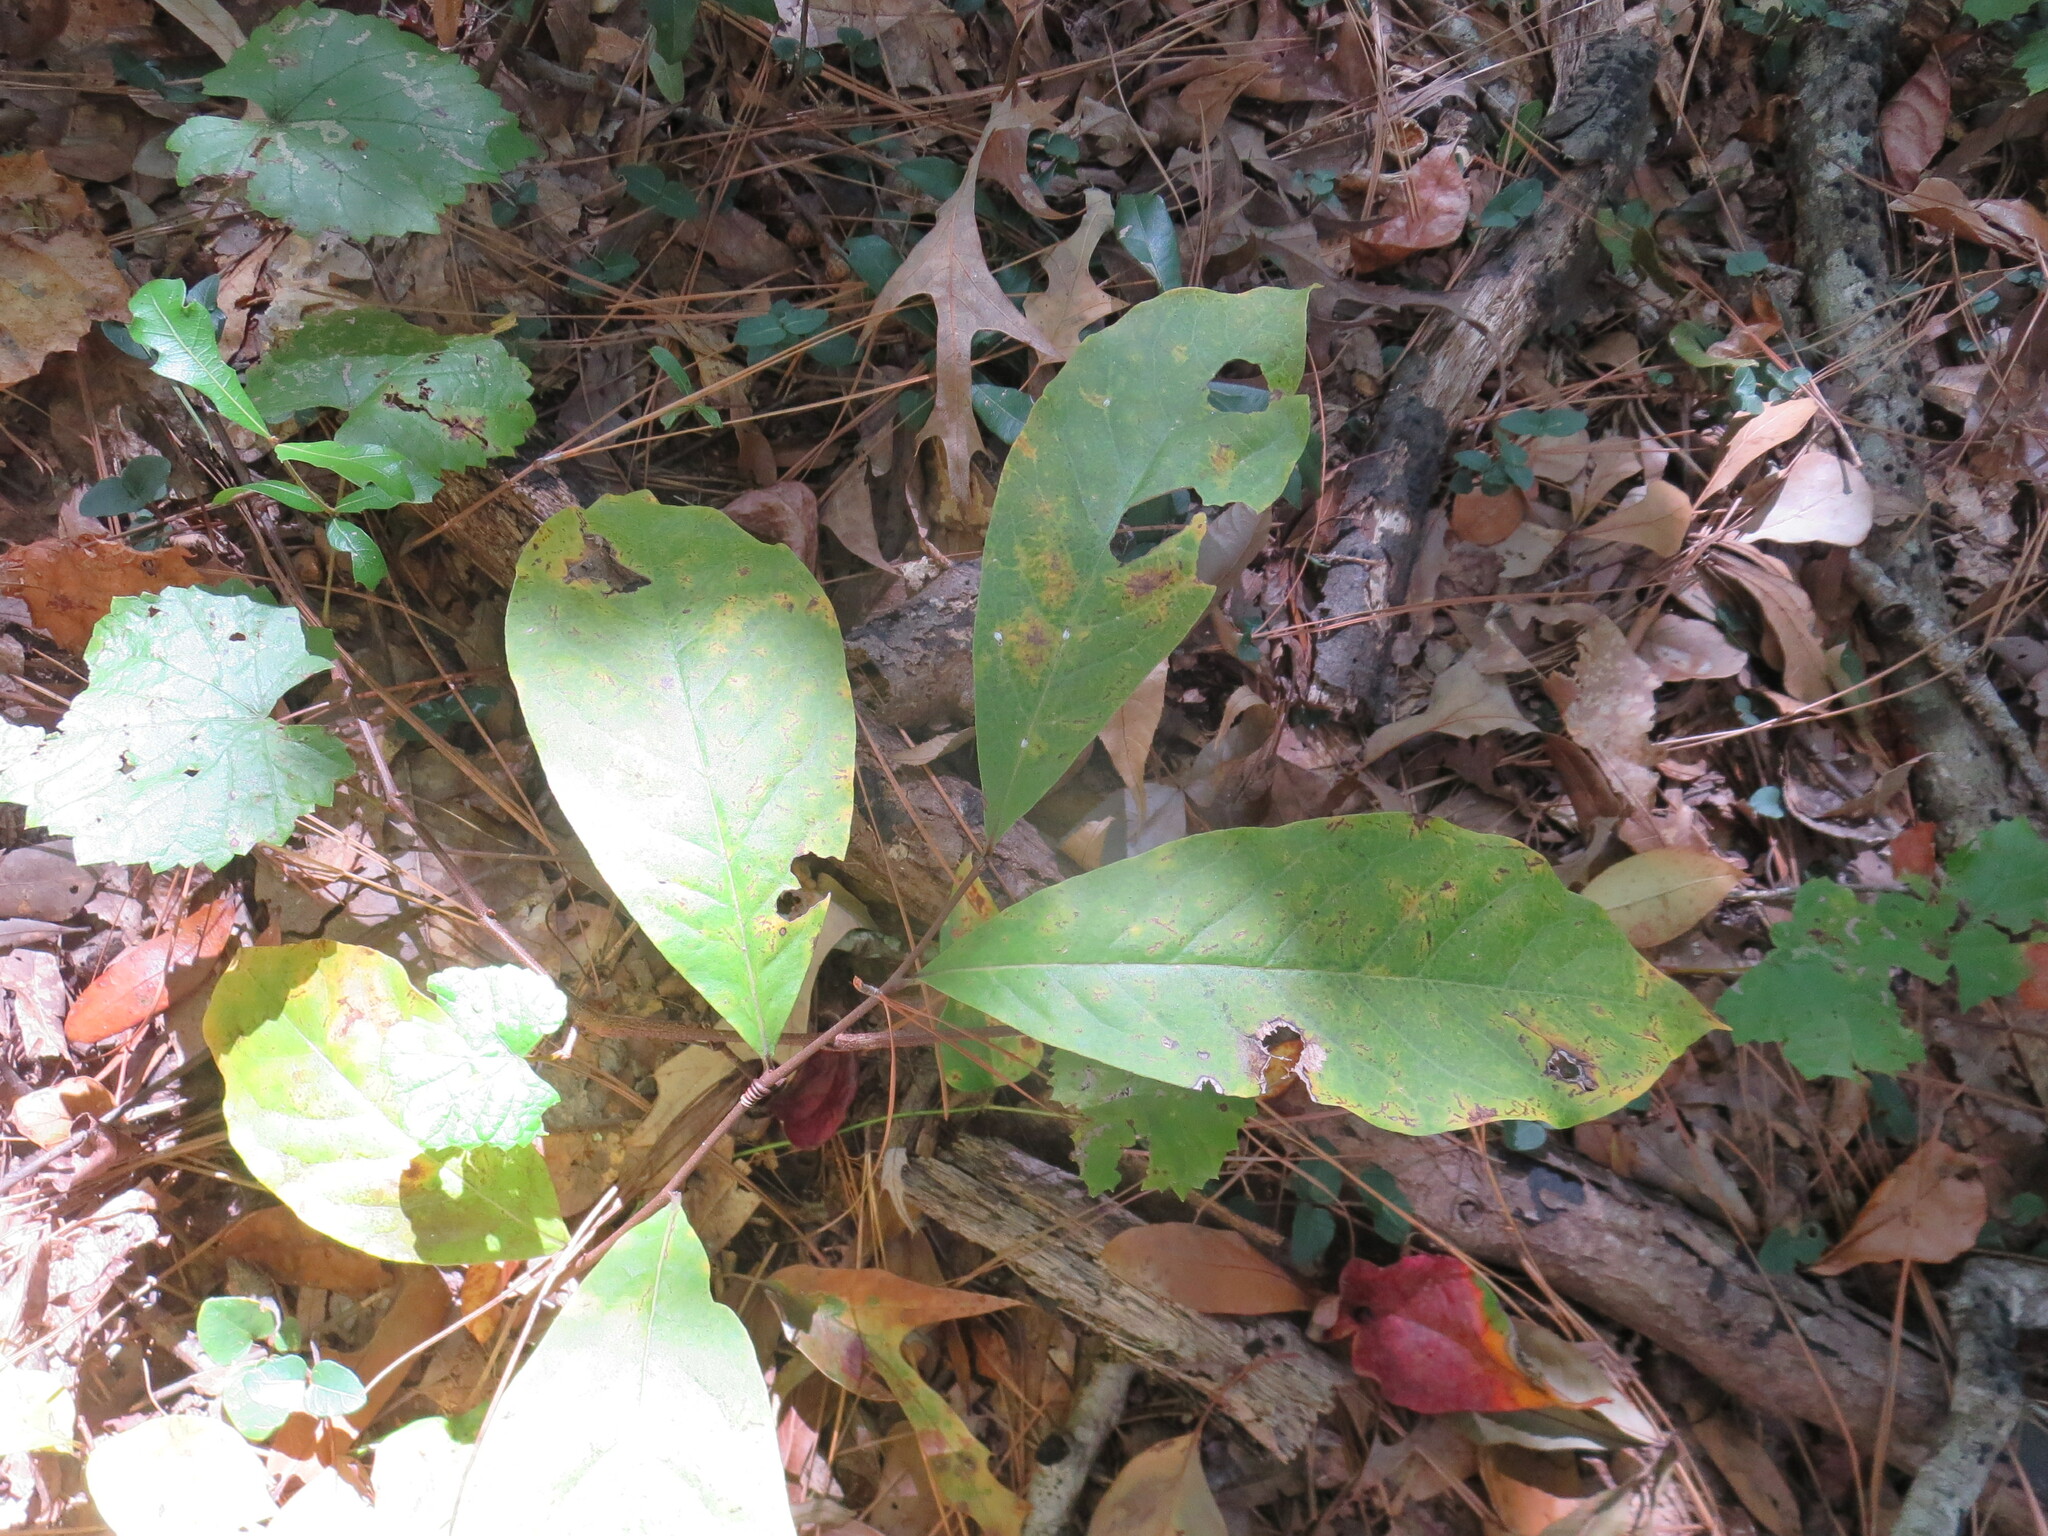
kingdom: Plantae
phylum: Tracheophyta
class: Magnoliopsida
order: Magnoliales
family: Annonaceae
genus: Asimina
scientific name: Asimina parviflora
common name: Dwarf pawpaw
